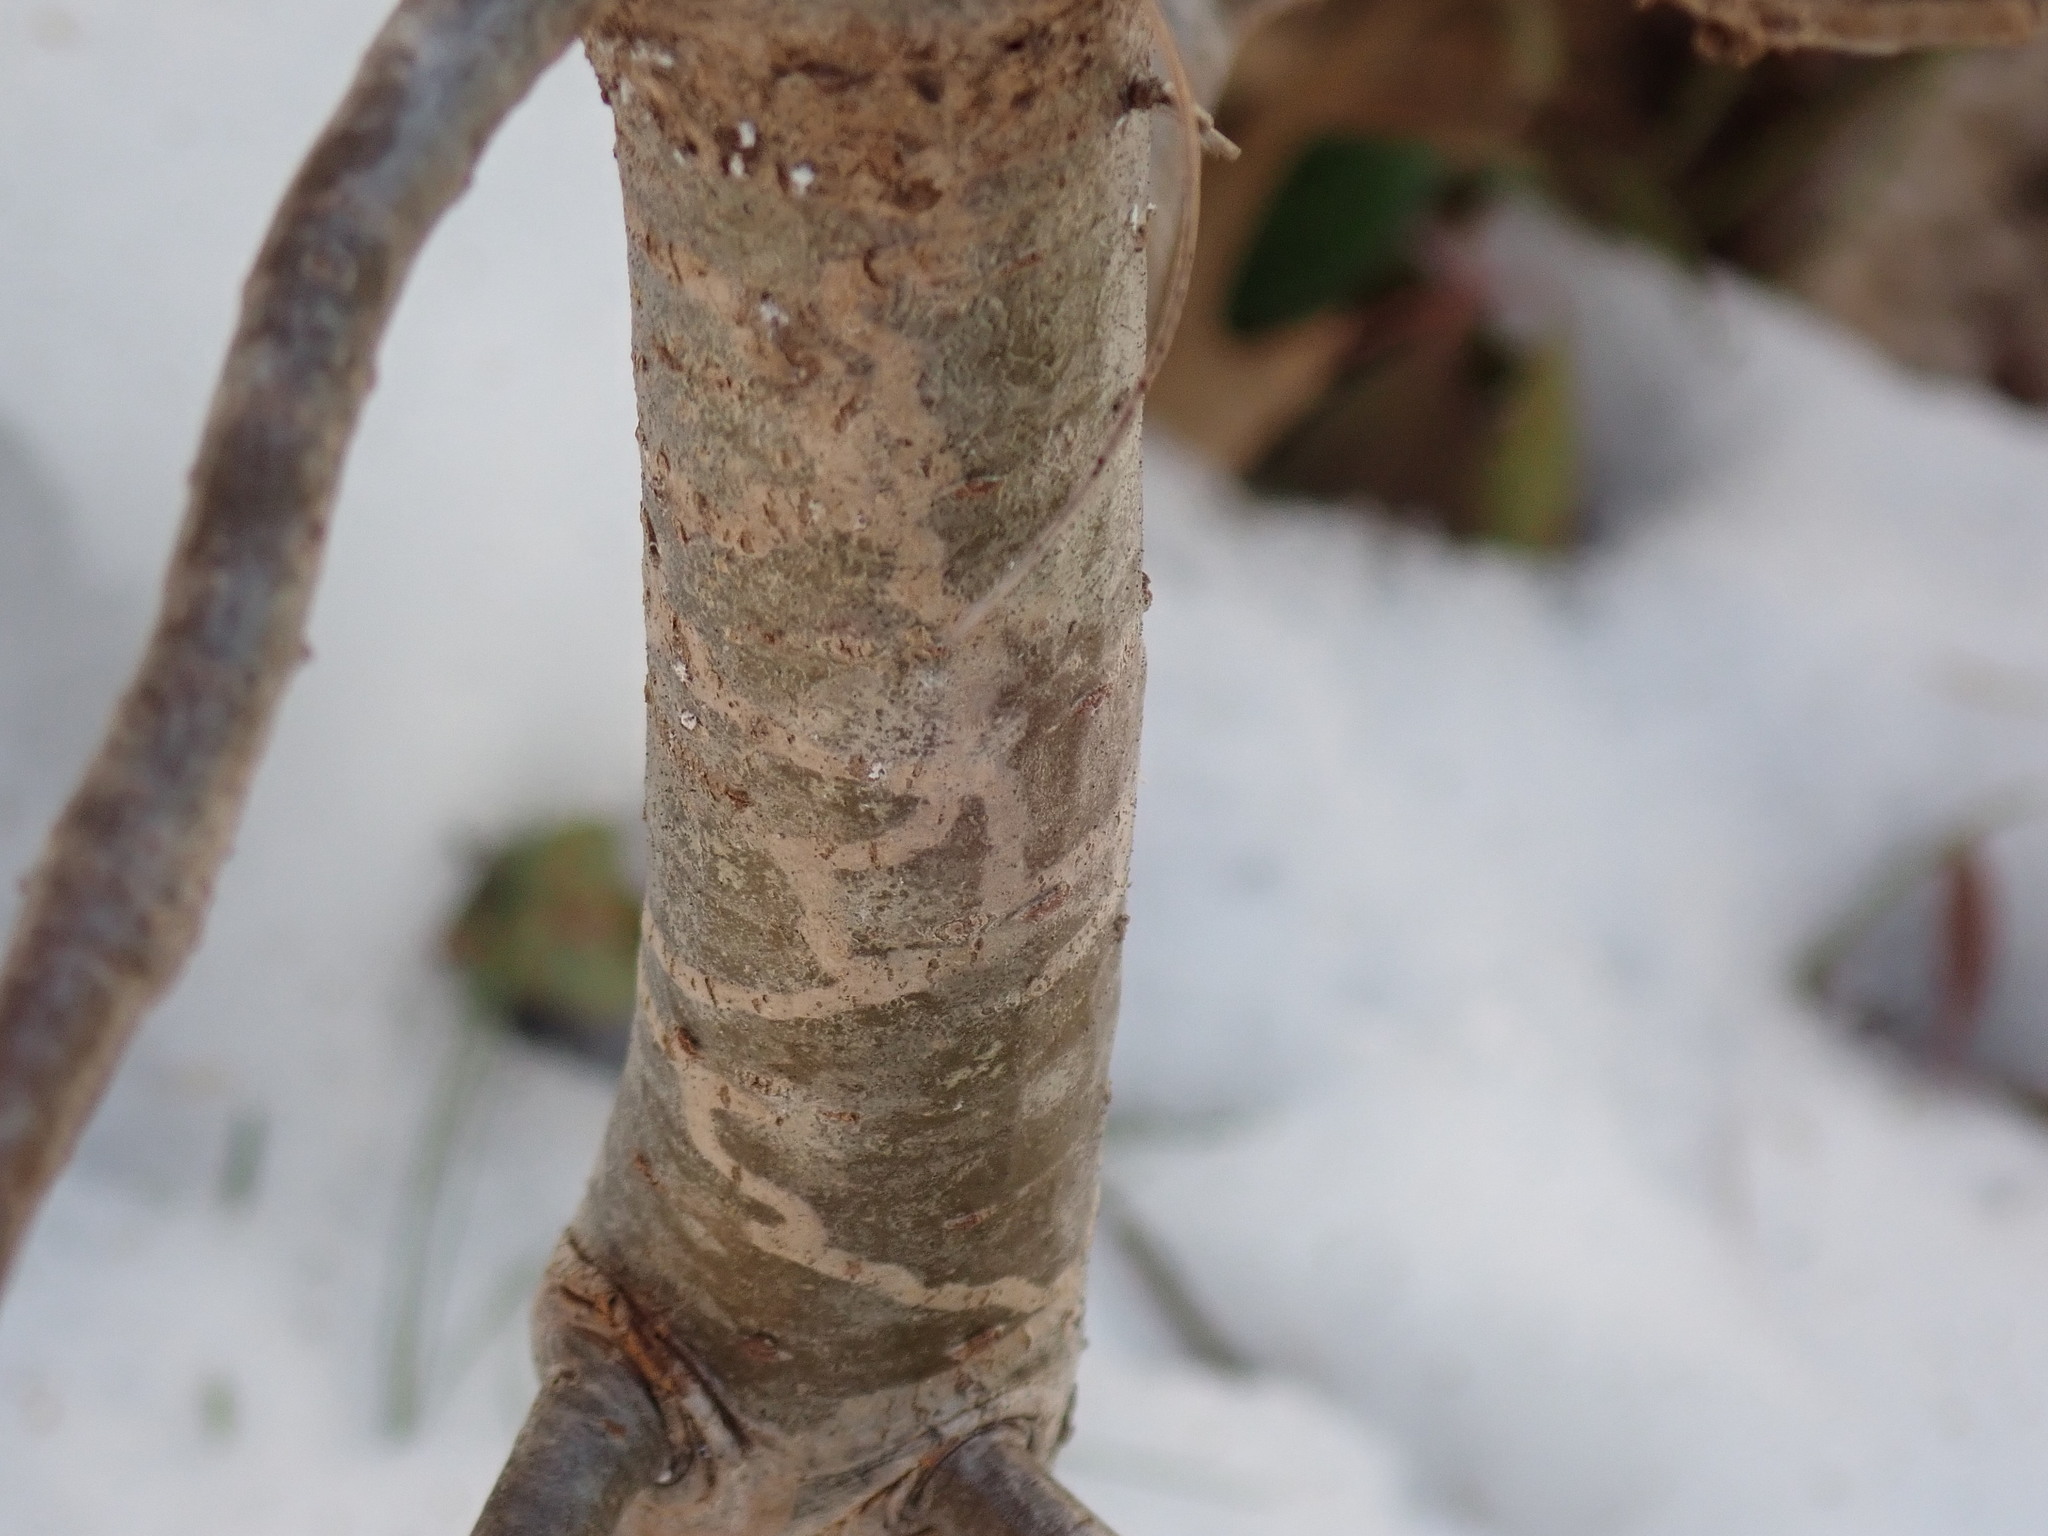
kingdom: Animalia
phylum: Arthropoda
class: Insecta
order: Lepidoptera
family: Gracillariidae
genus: Marmara
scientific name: Marmara fasciella
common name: White pine barkminer moth
